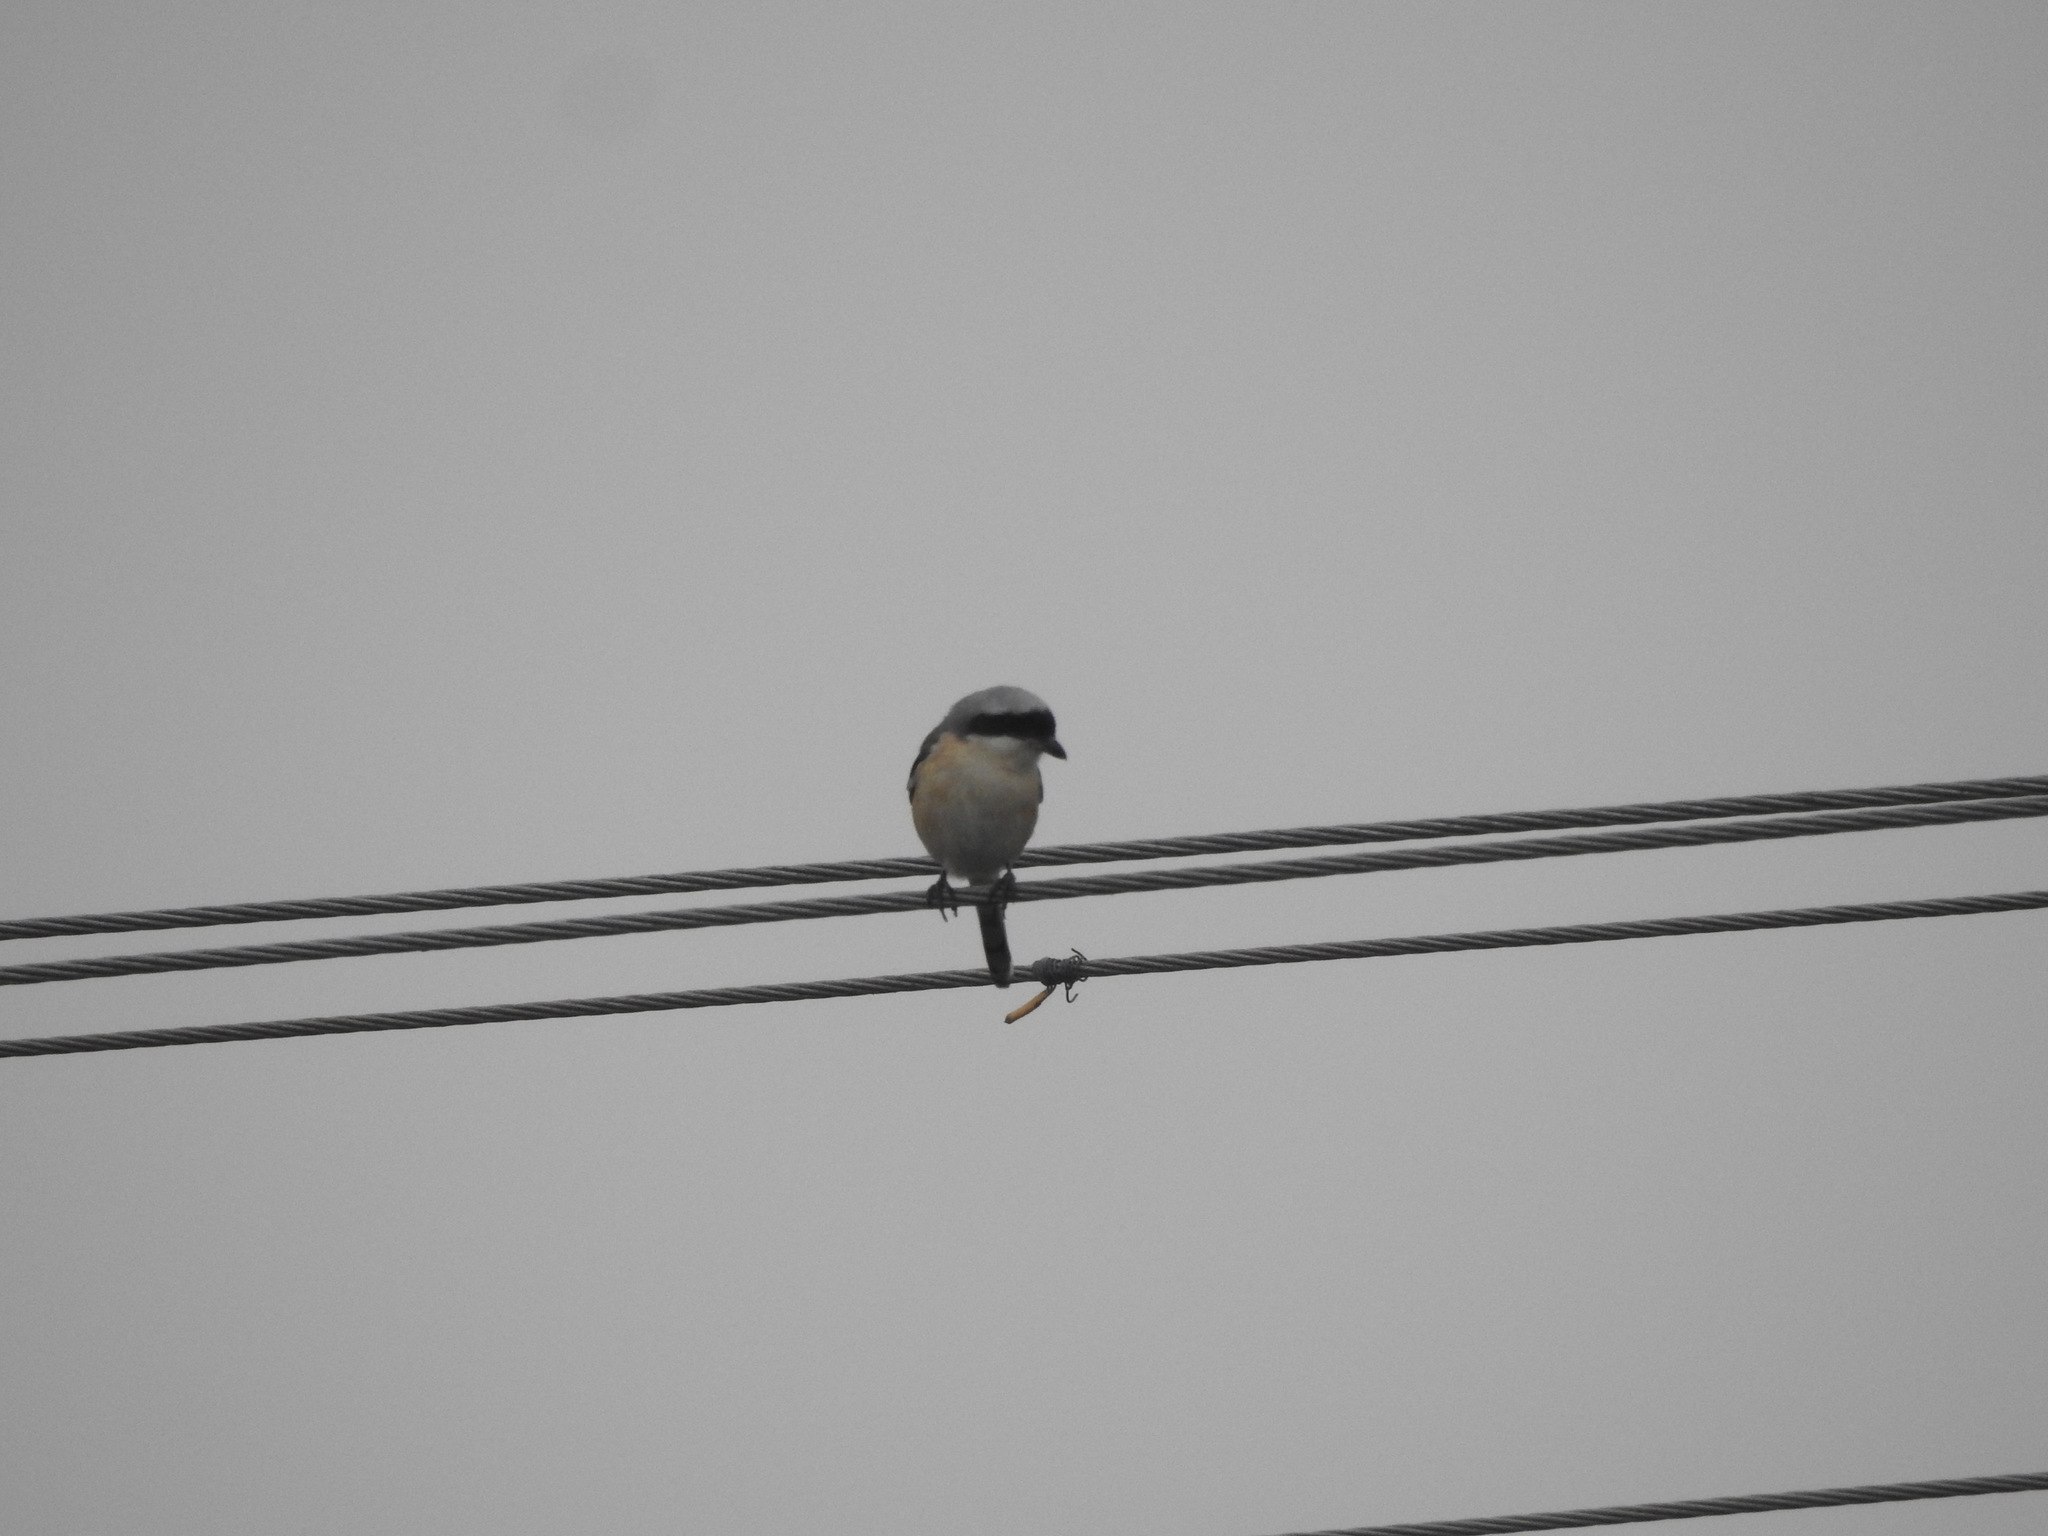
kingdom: Animalia
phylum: Chordata
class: Aves
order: Passeriformes
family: Laniidae
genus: Lanius
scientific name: Lanius vittatus
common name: Bay-backed shrike
